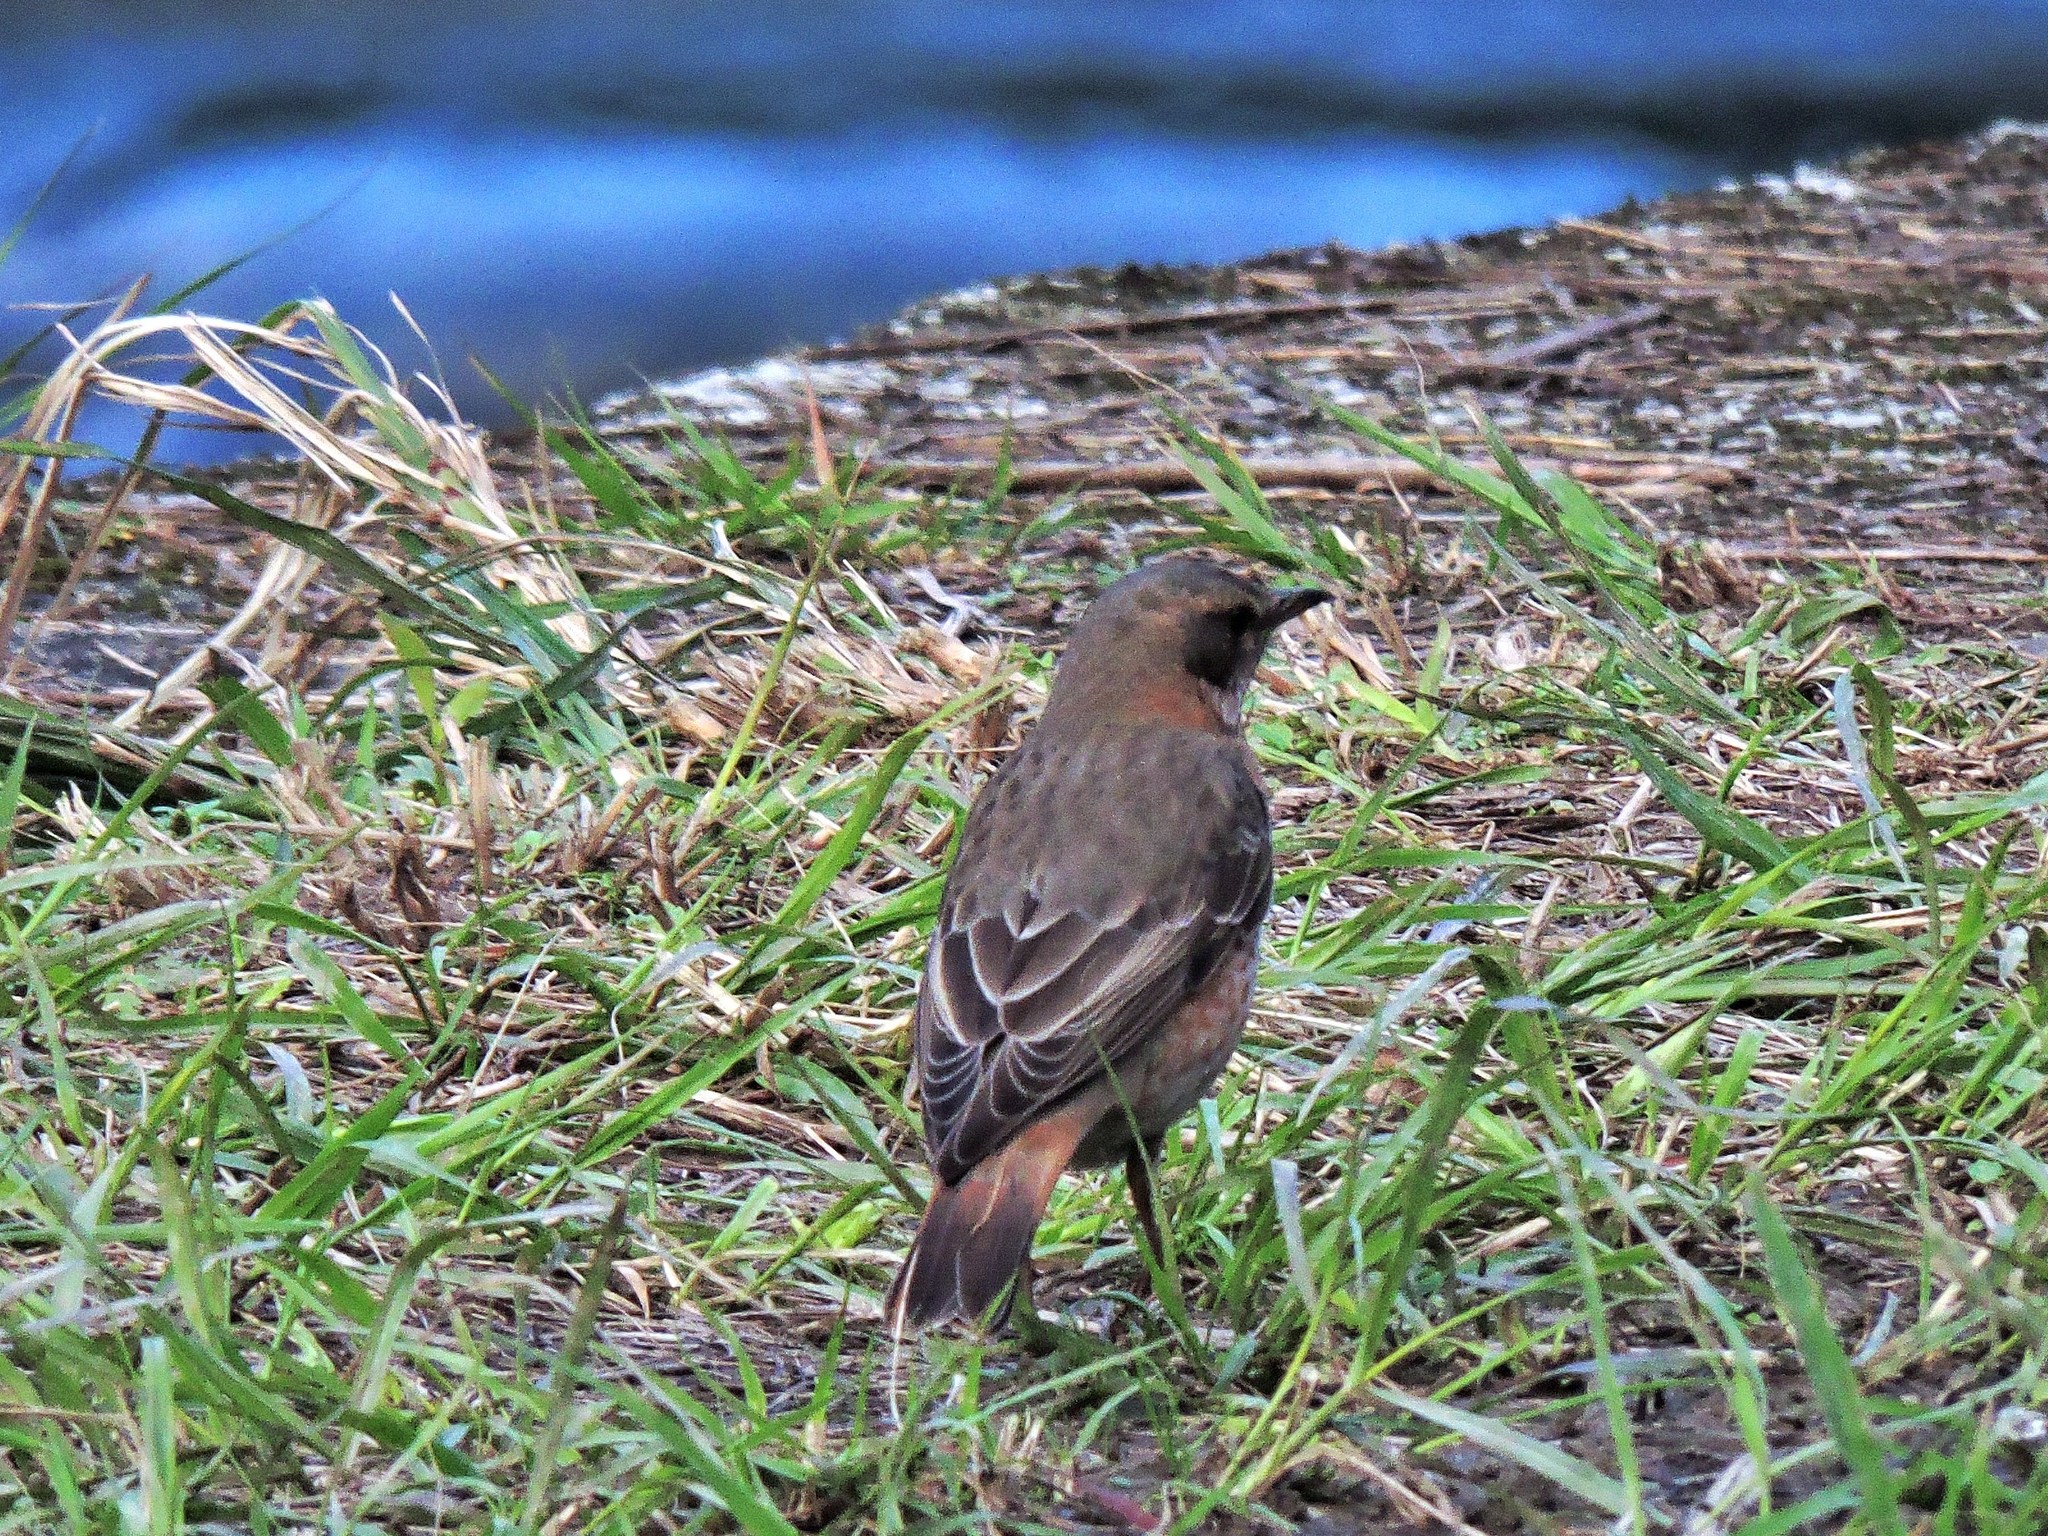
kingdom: Animalia
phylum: Chordata
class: Aves
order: Passeriformes
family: Turdidae
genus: Turdus
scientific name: Turdus naumanni
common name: Naumann's thrush
